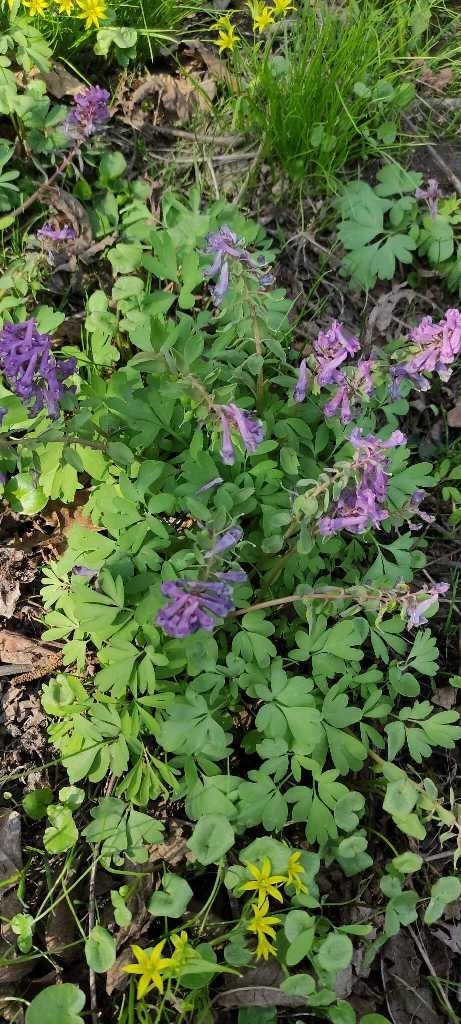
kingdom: Plantae
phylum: Tracheophyta
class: Magnoliopsida
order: Ranunculales
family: Papaveraceae
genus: Corydalis
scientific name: Corydalis solida
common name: Bird-in-a-bush
